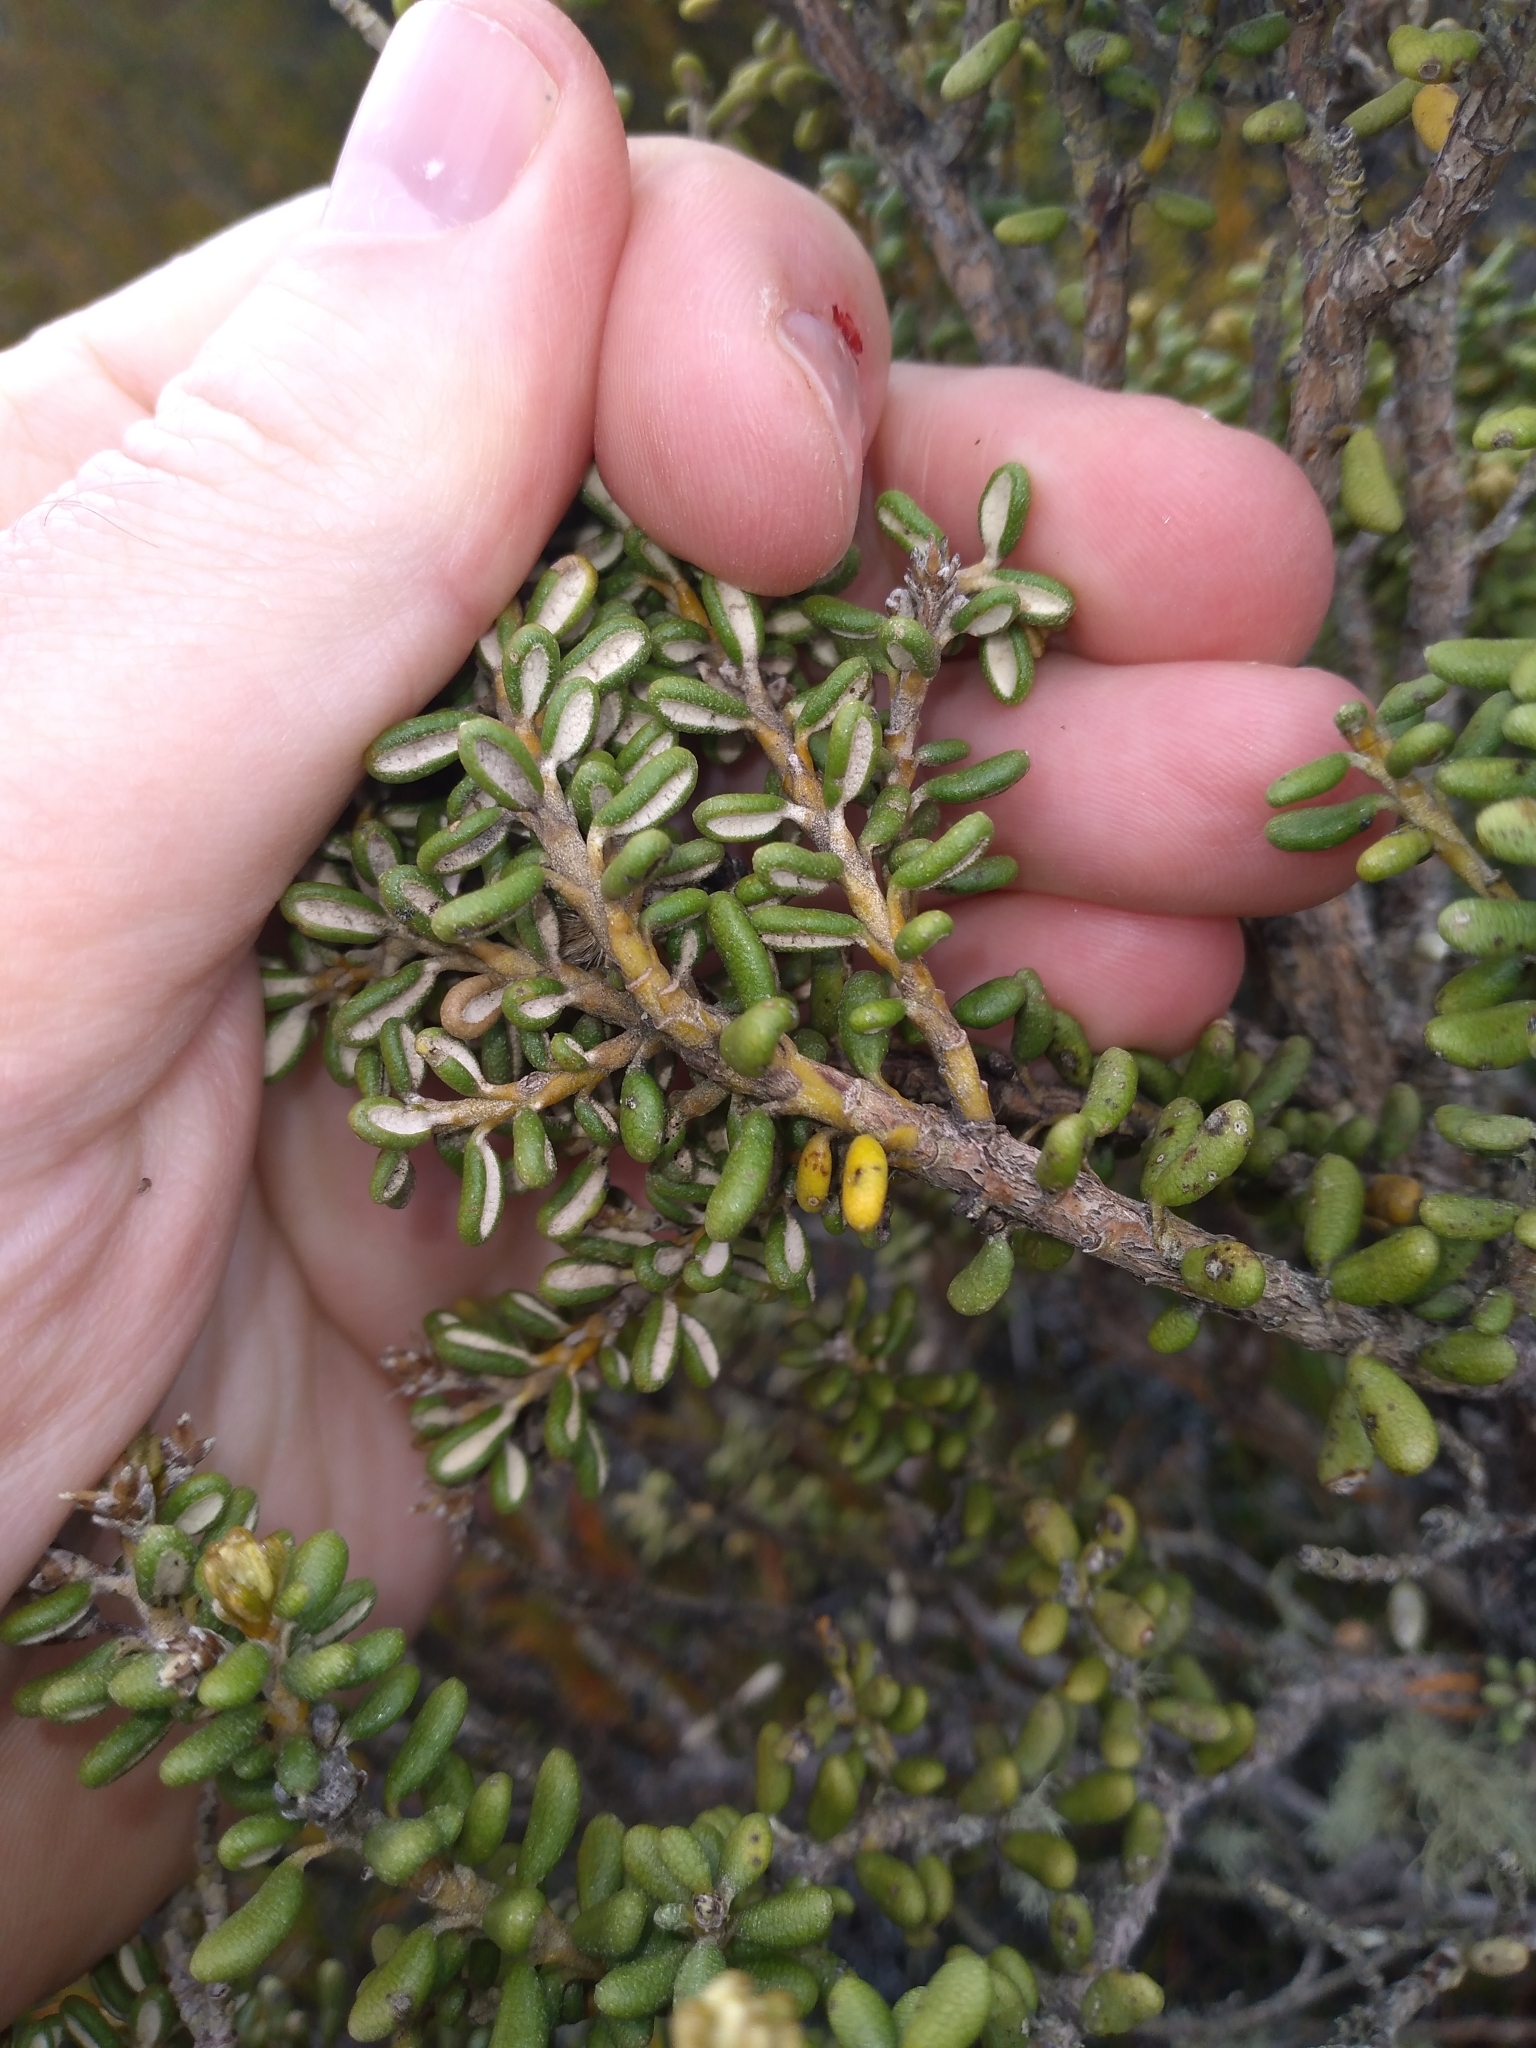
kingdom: Plantae
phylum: Tracheophyta
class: Magnoliopsida
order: Asterales
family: Asteraceae
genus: Olearia
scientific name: Olearia cymbifolia
